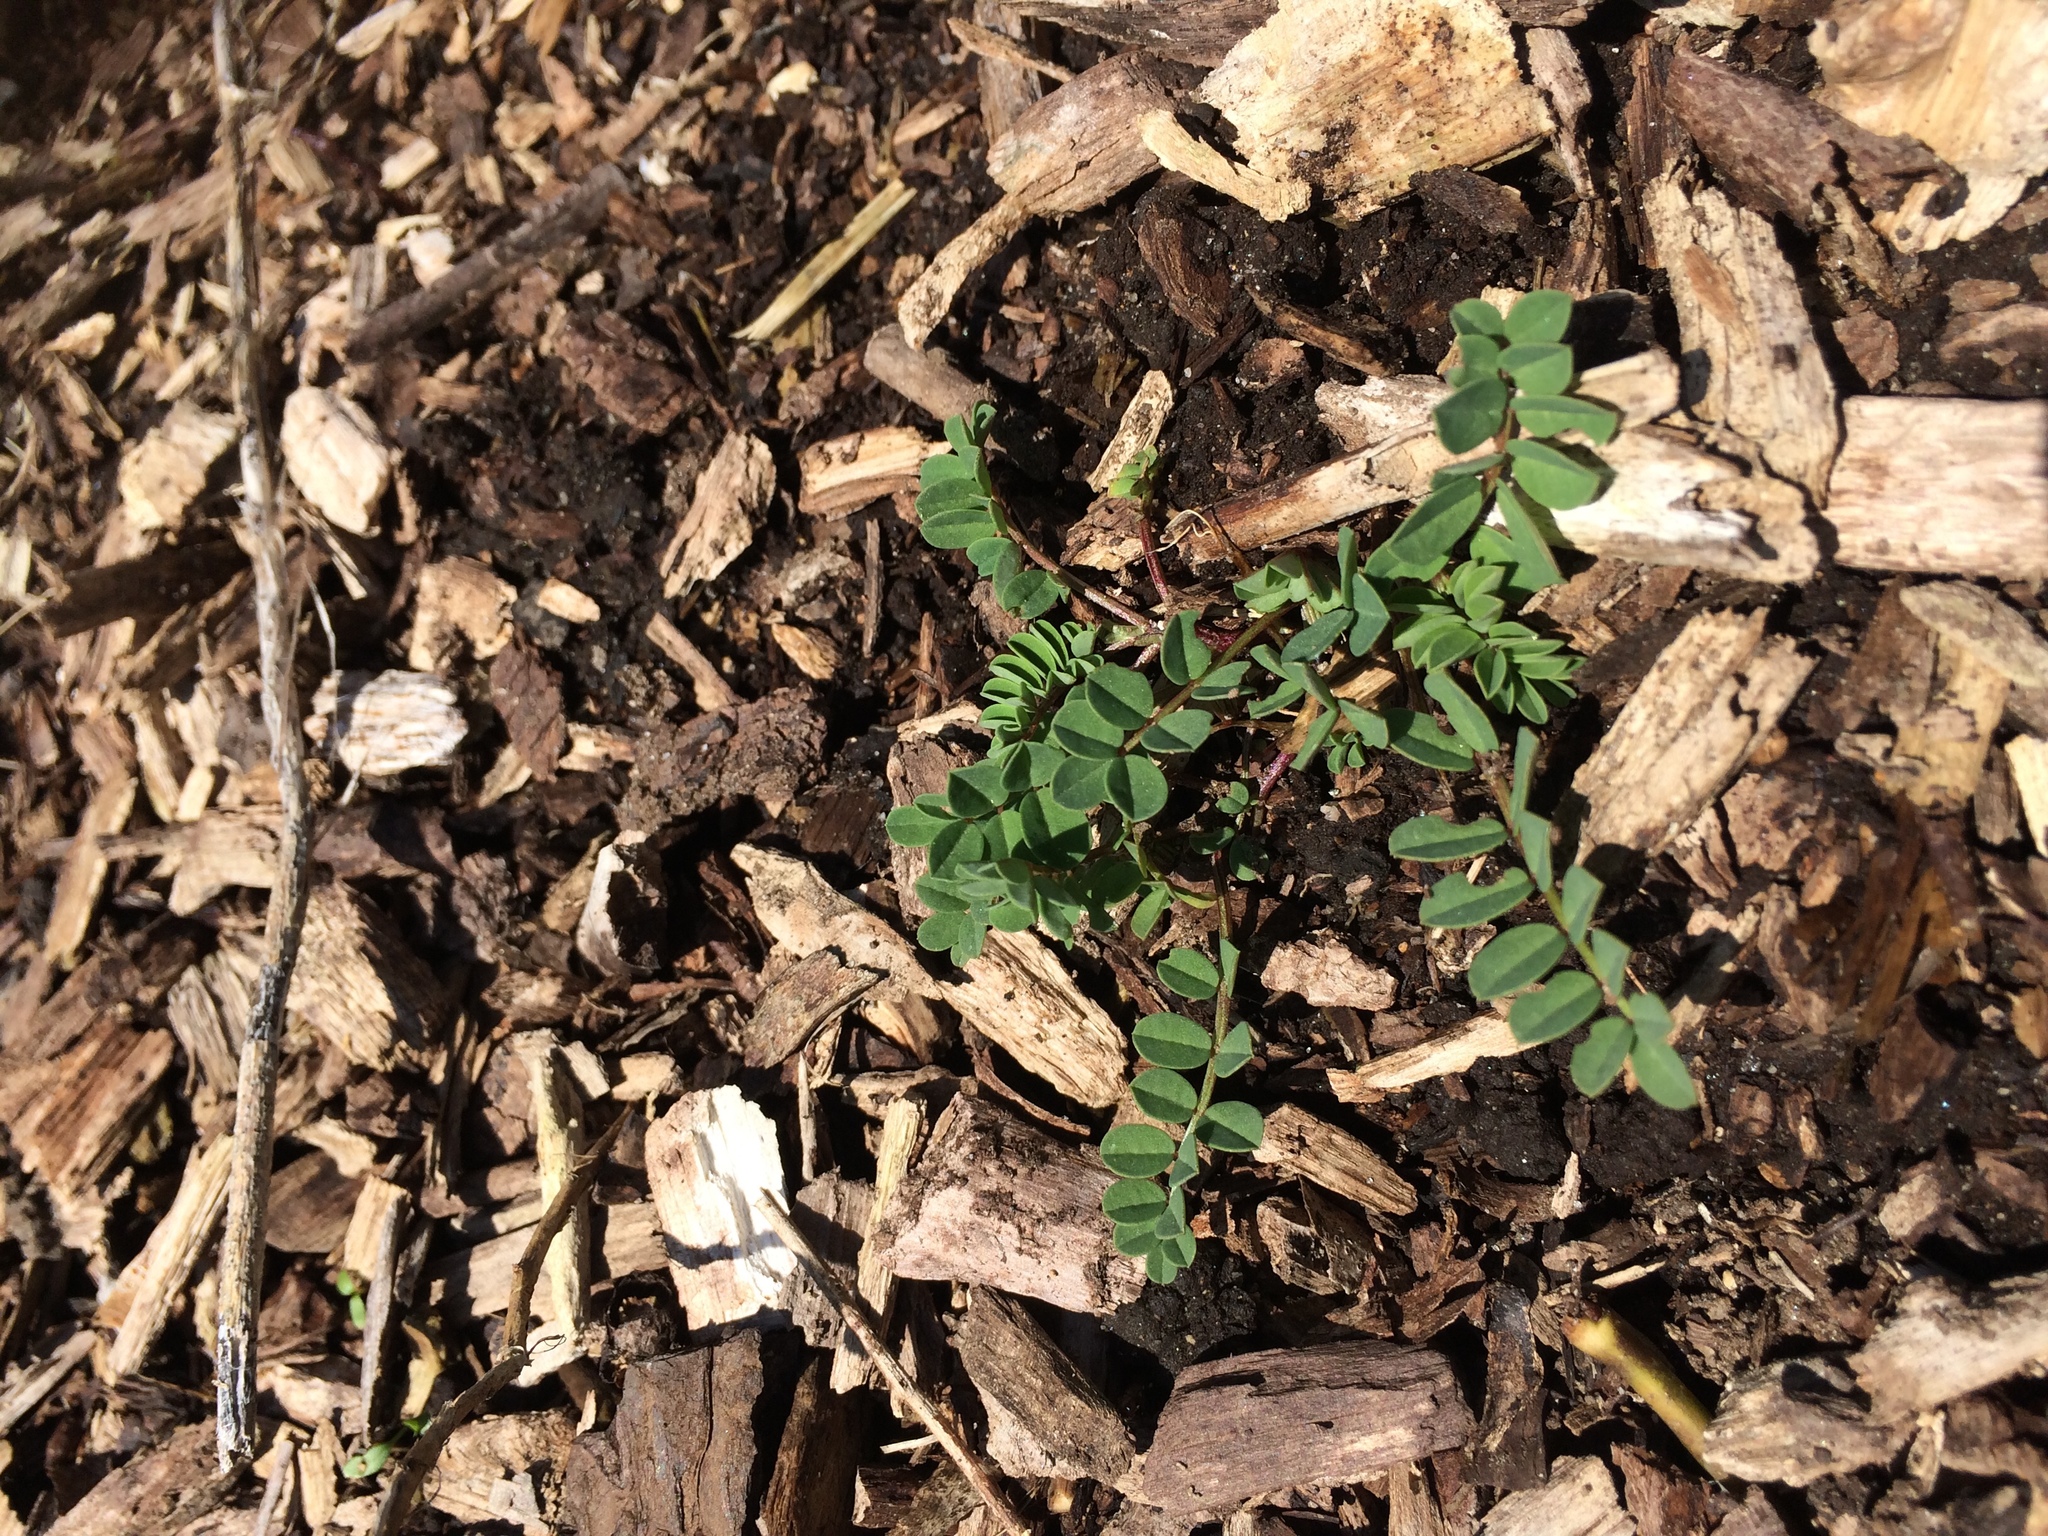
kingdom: Plantae
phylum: Tracheophyta
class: Magnoliopsida
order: Fabales
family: Fabaceae
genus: Coronilla
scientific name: Coronilla varia
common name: Crownvetch
